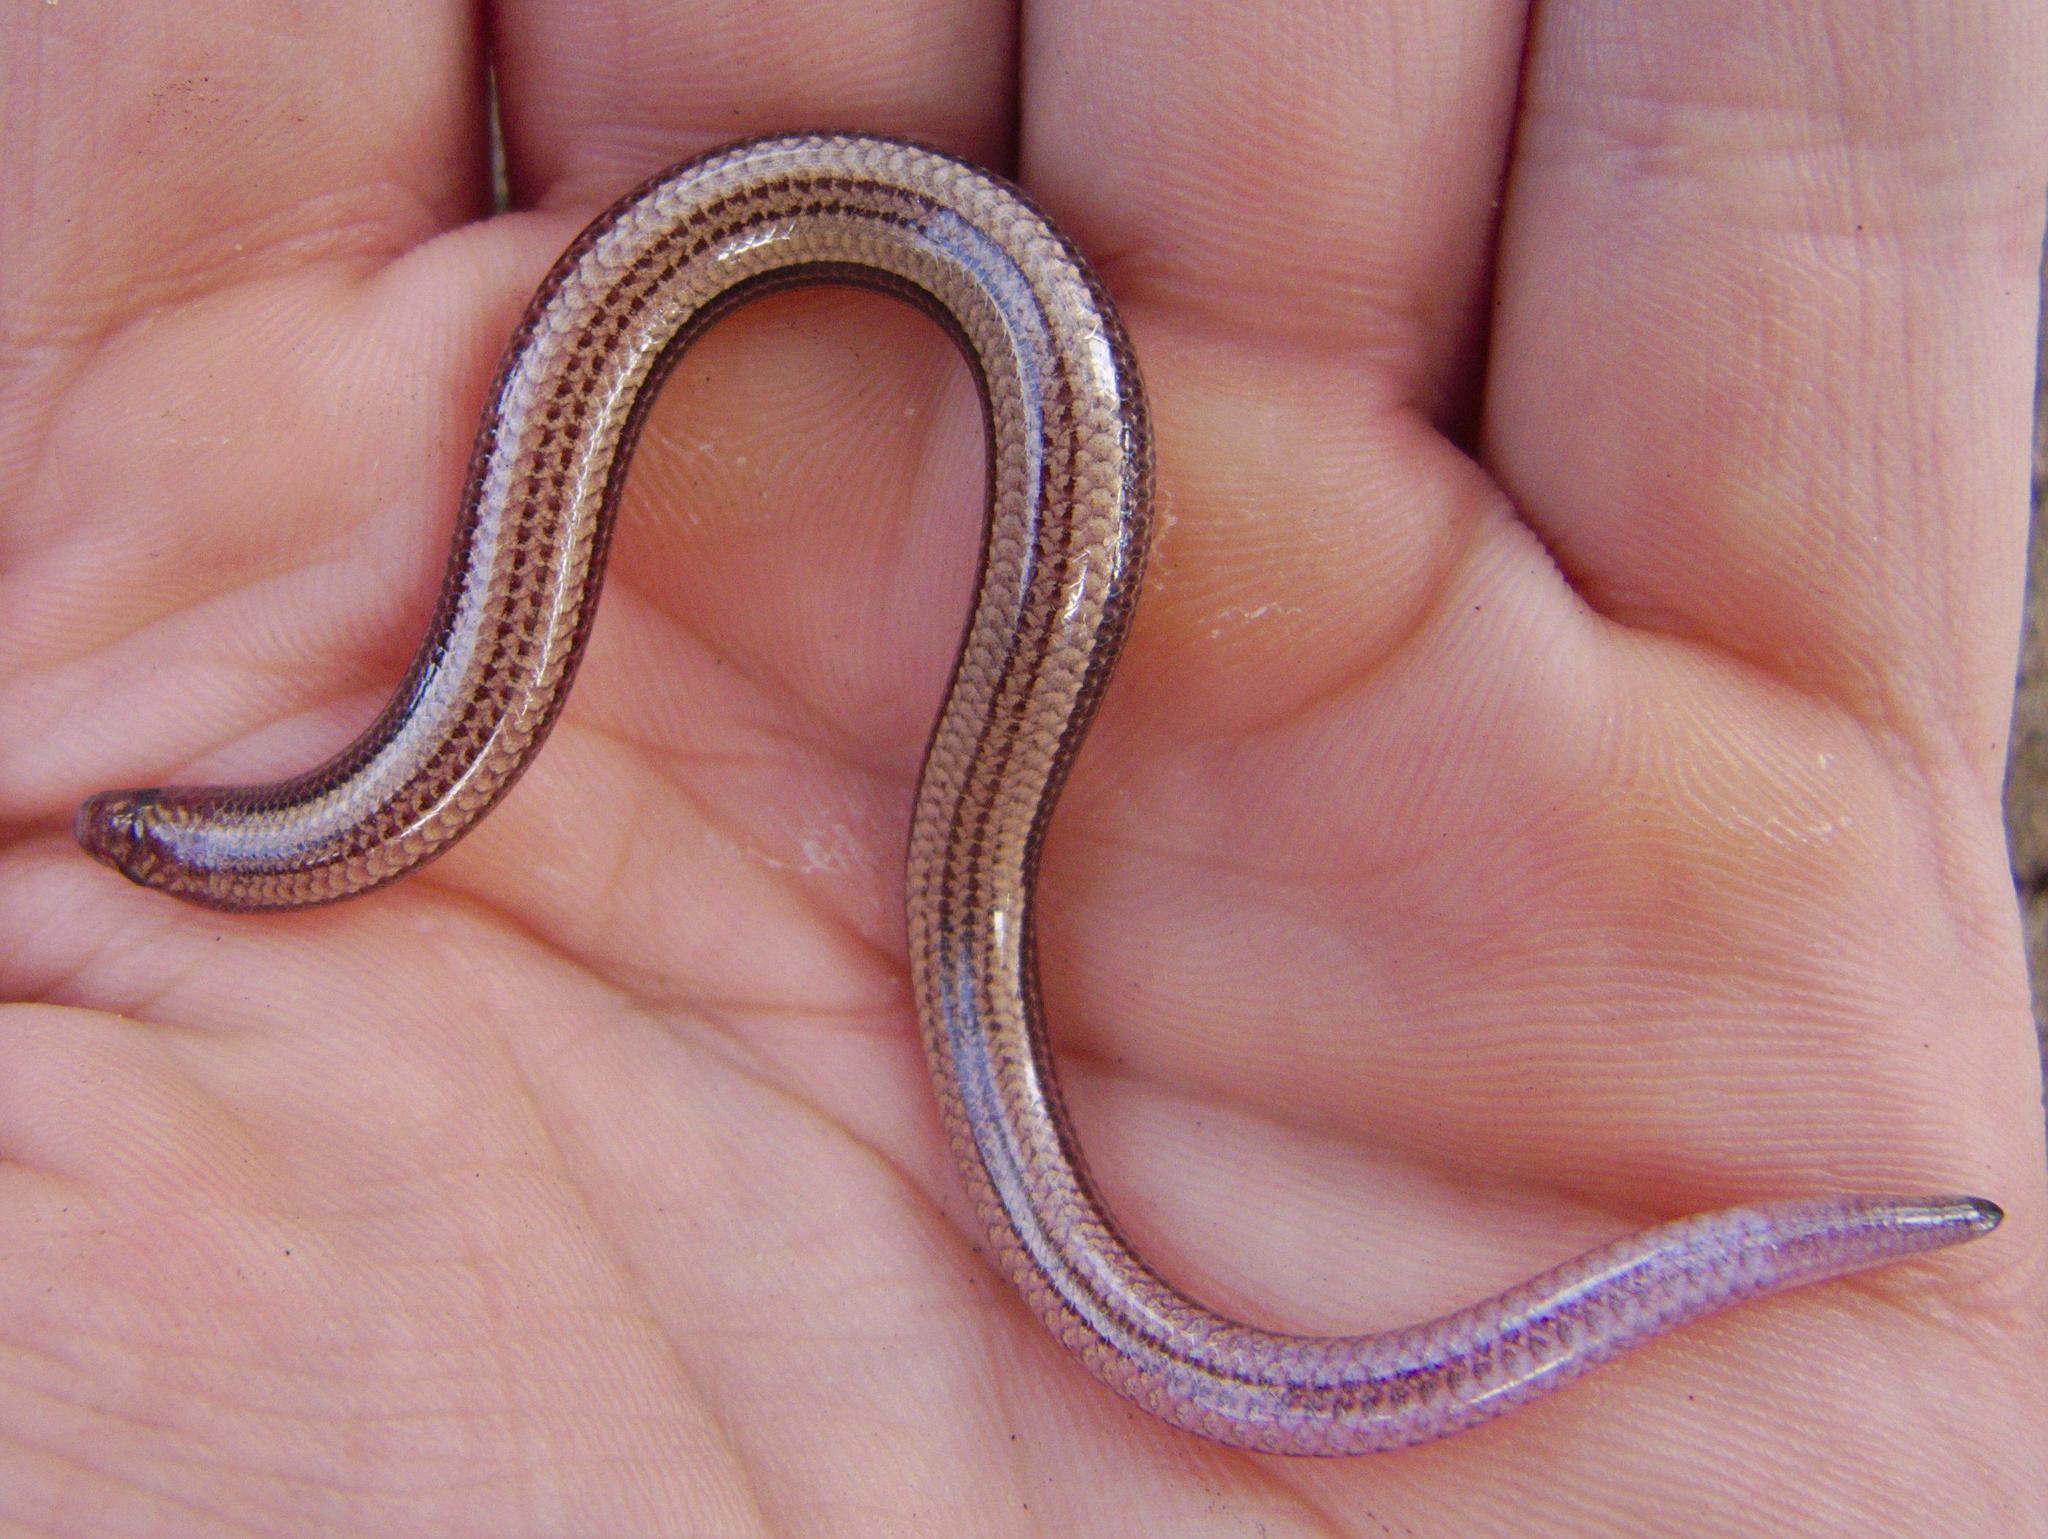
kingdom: Animalia
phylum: Chordata
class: Squamata
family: Scincidae
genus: Scelotes
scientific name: Scelotes vestigifer
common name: Coastal dwarf burrowing skink
